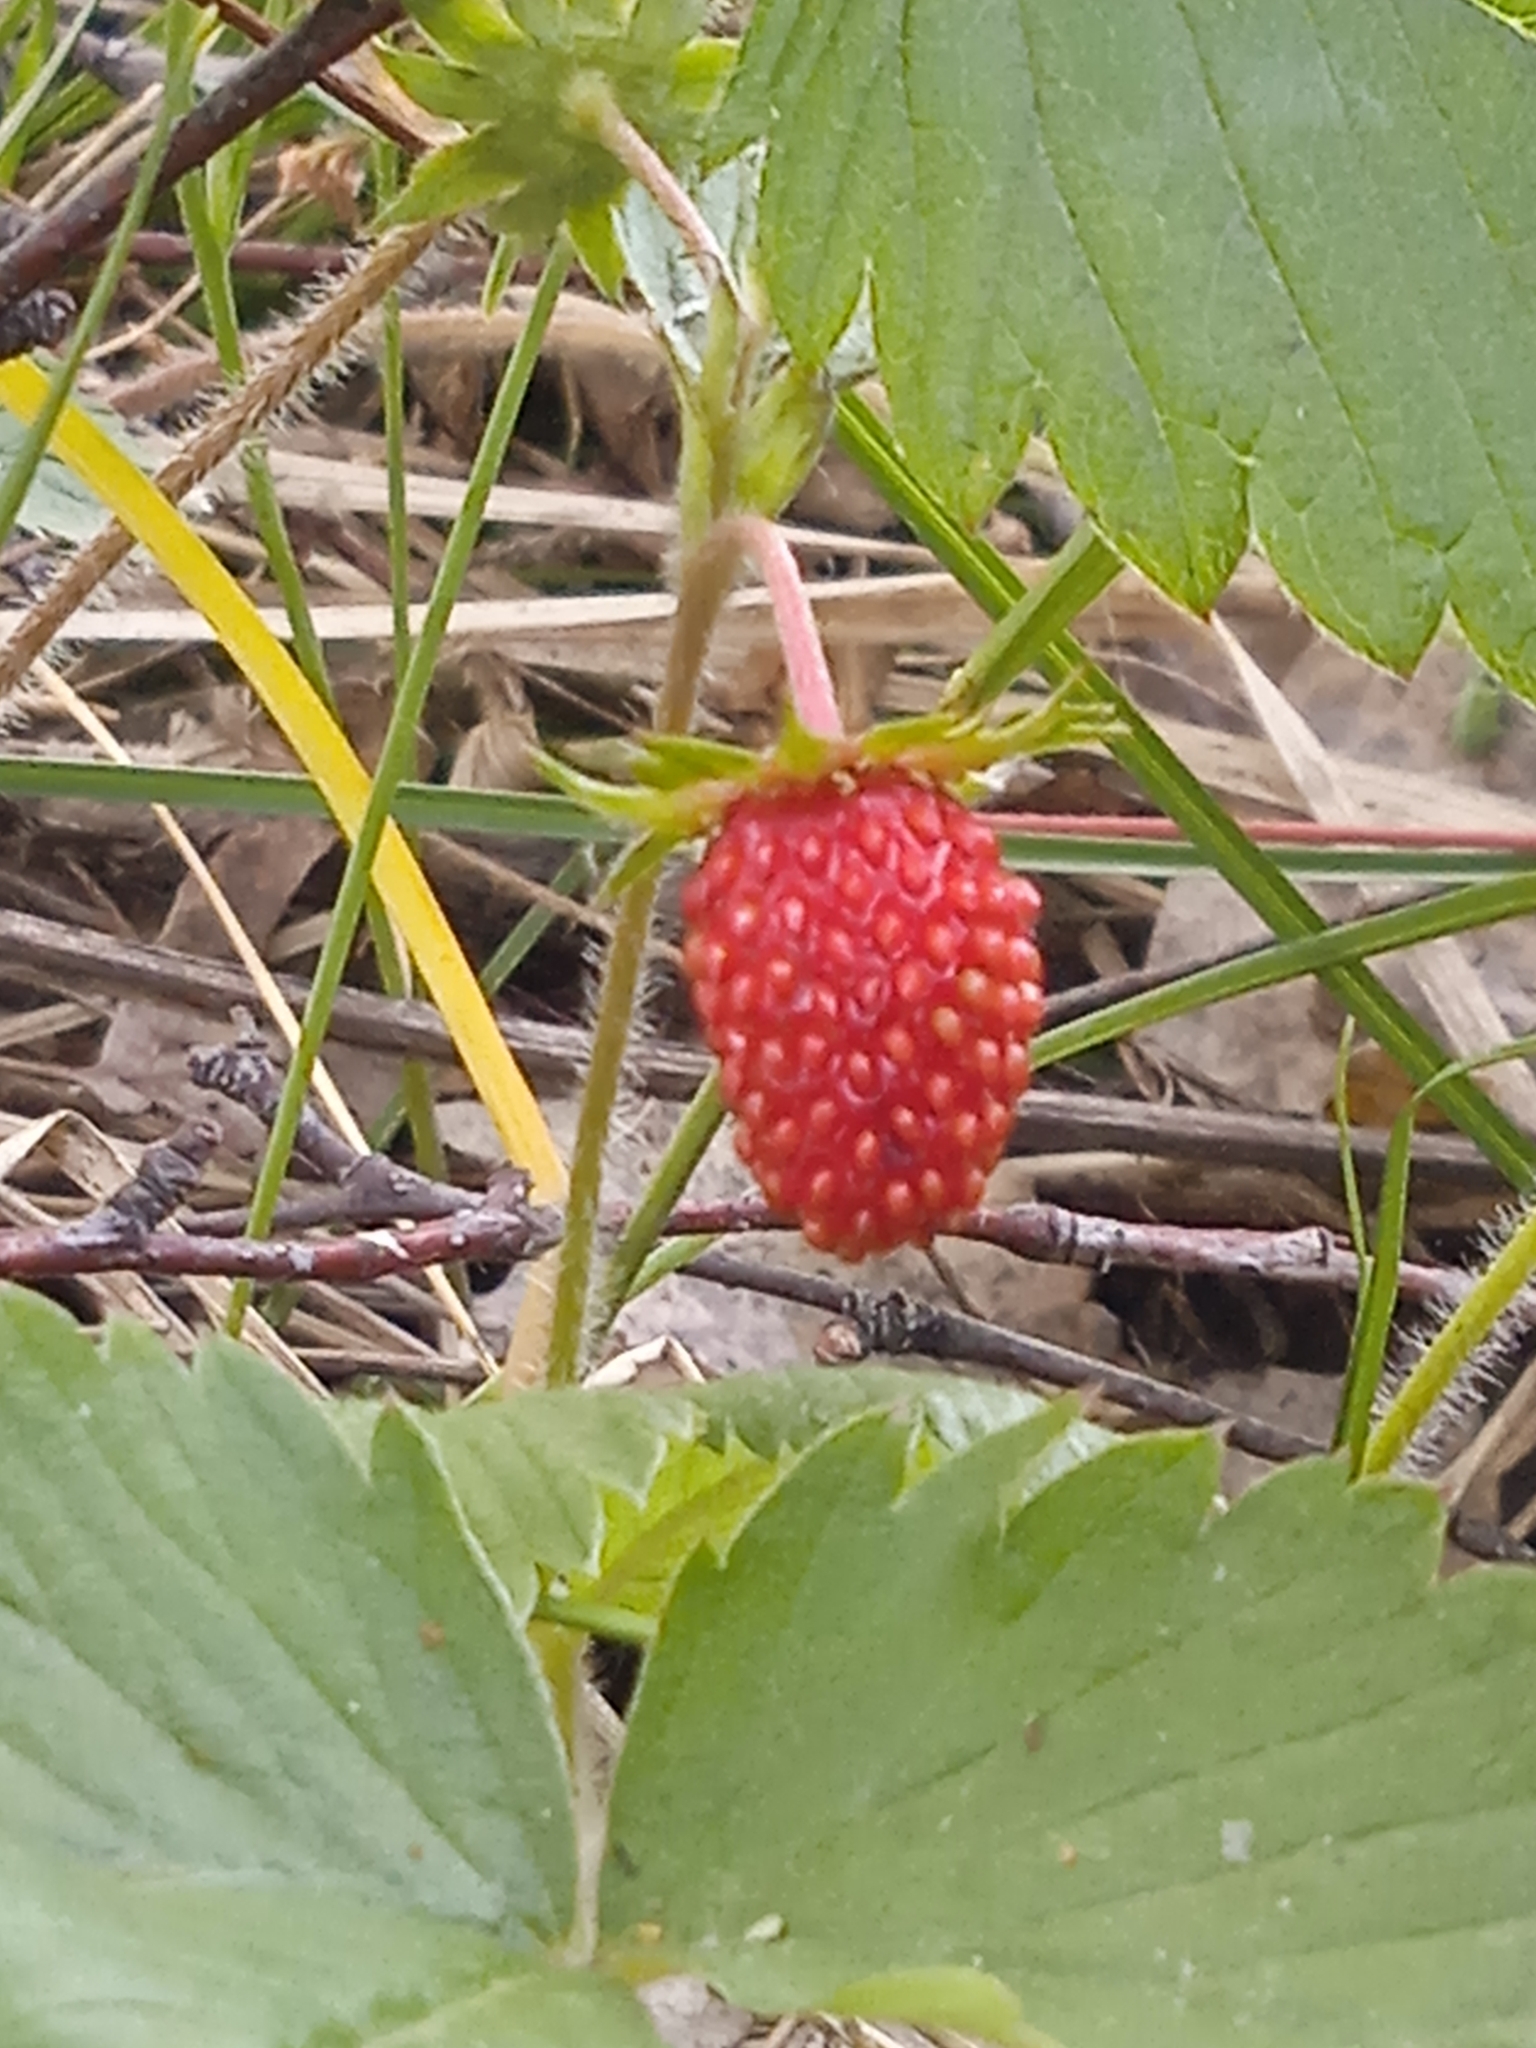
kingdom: Plantae
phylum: Tracheophyta
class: Magnoliopsida
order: Rosales
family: Rosaceae
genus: Fragaria
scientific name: Fragaria vesca
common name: Wild strawberry
